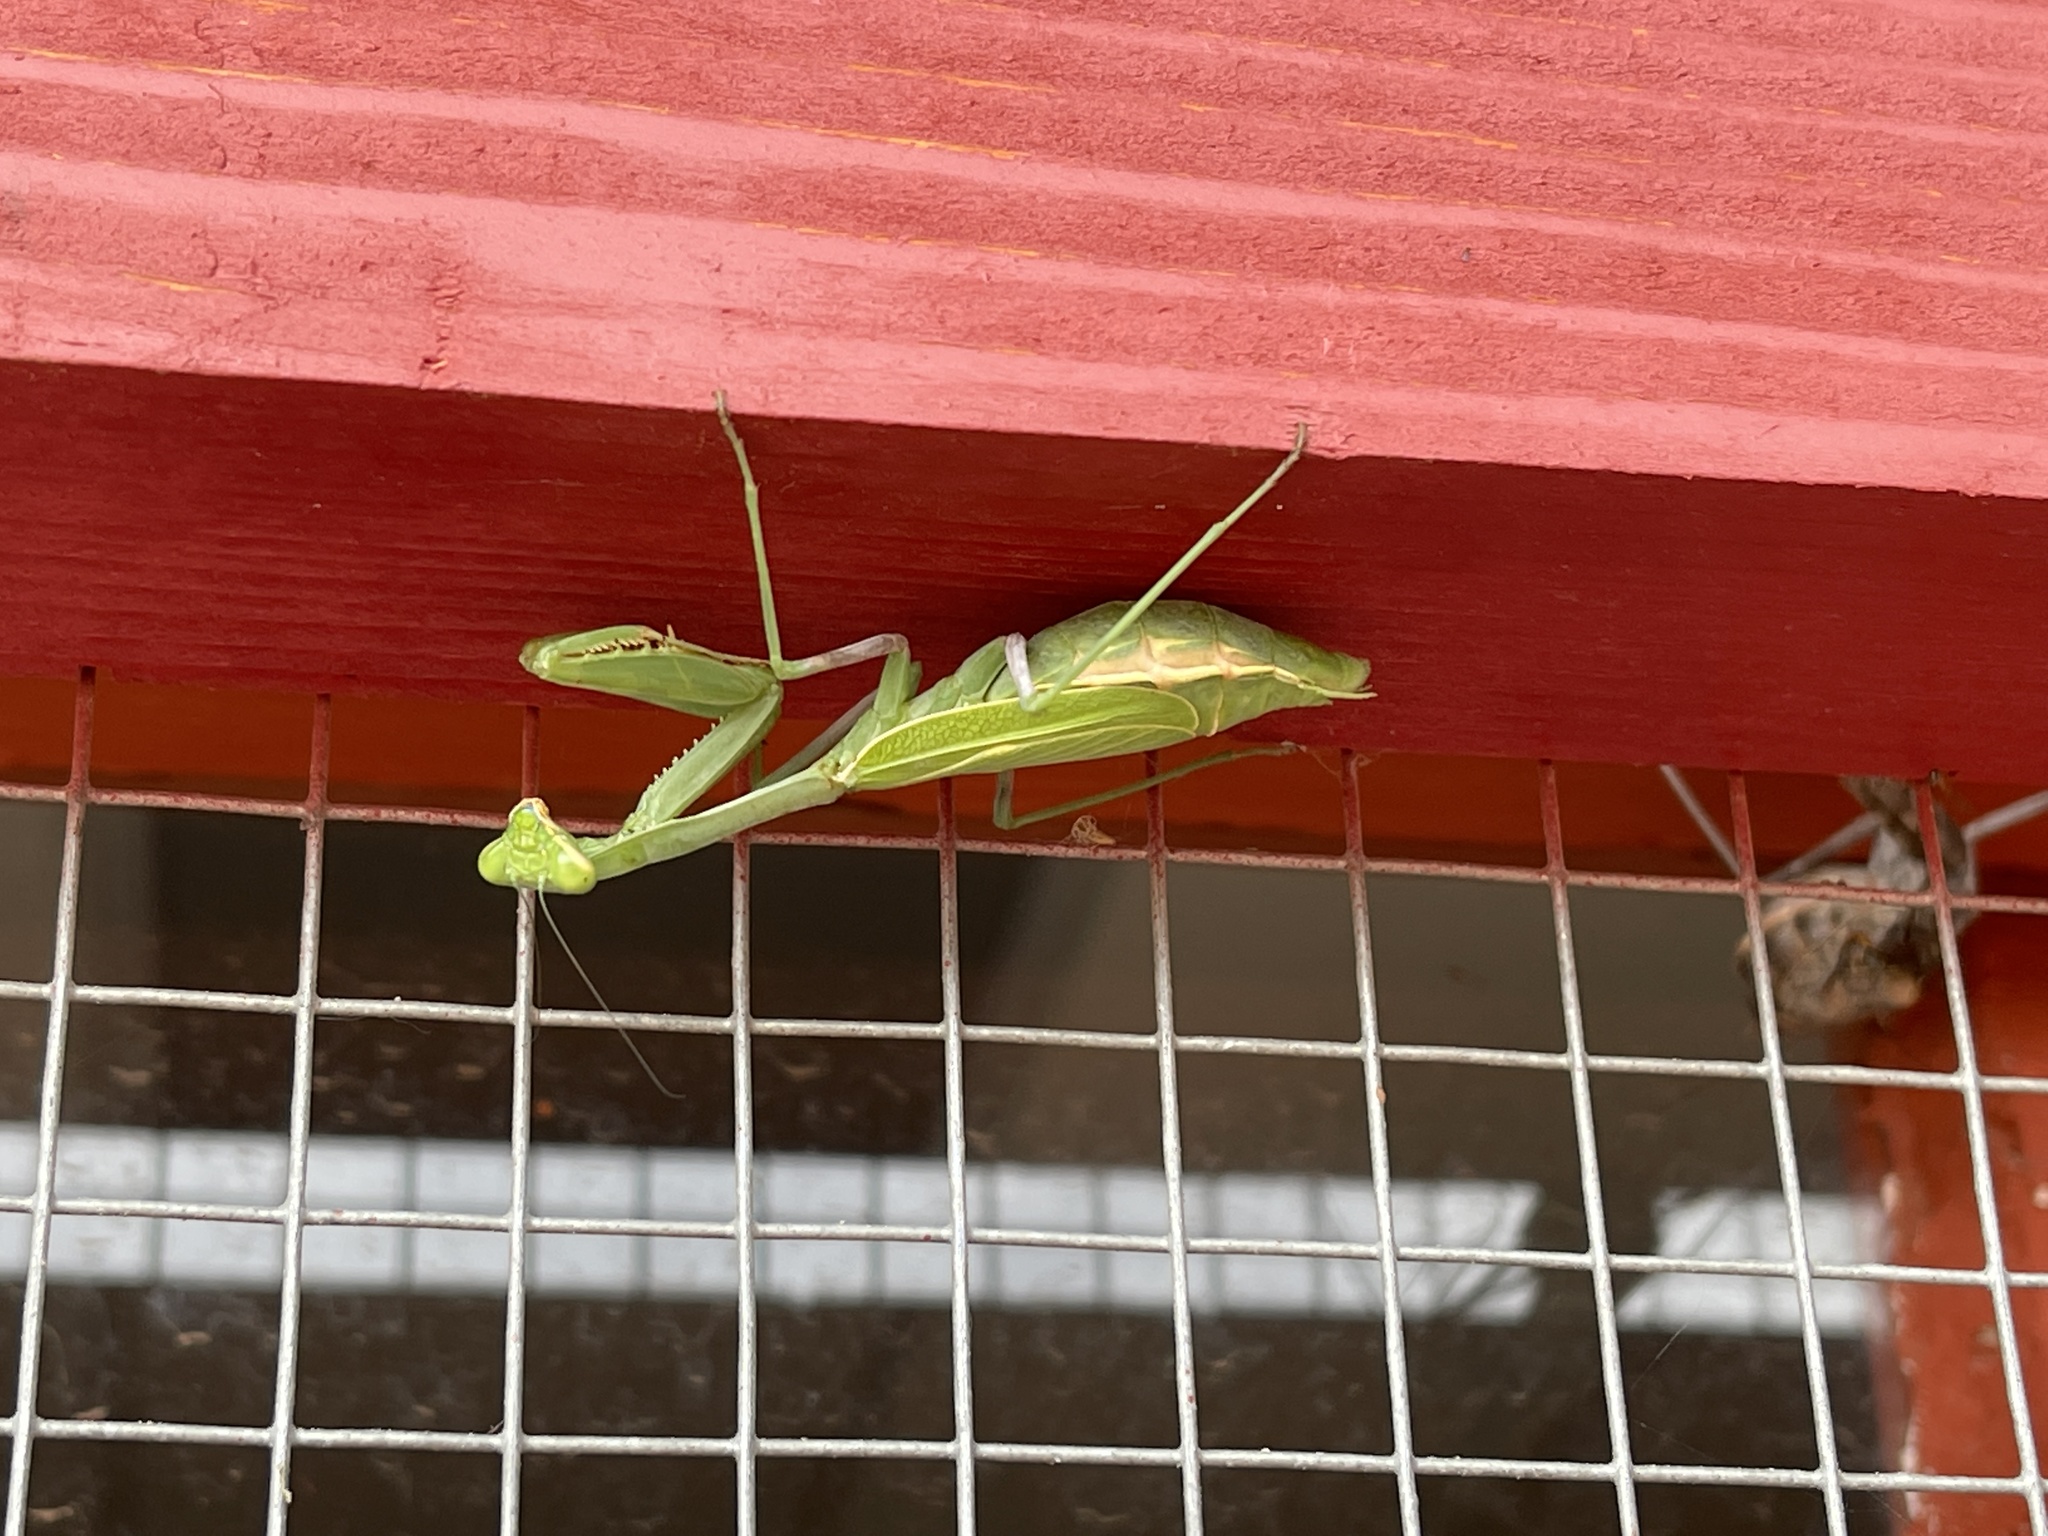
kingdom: Animalia
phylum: Arthropoda
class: Insecta
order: Mantodea
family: Mantidae
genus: Stagmomantis
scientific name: Stagmomantis limbata
